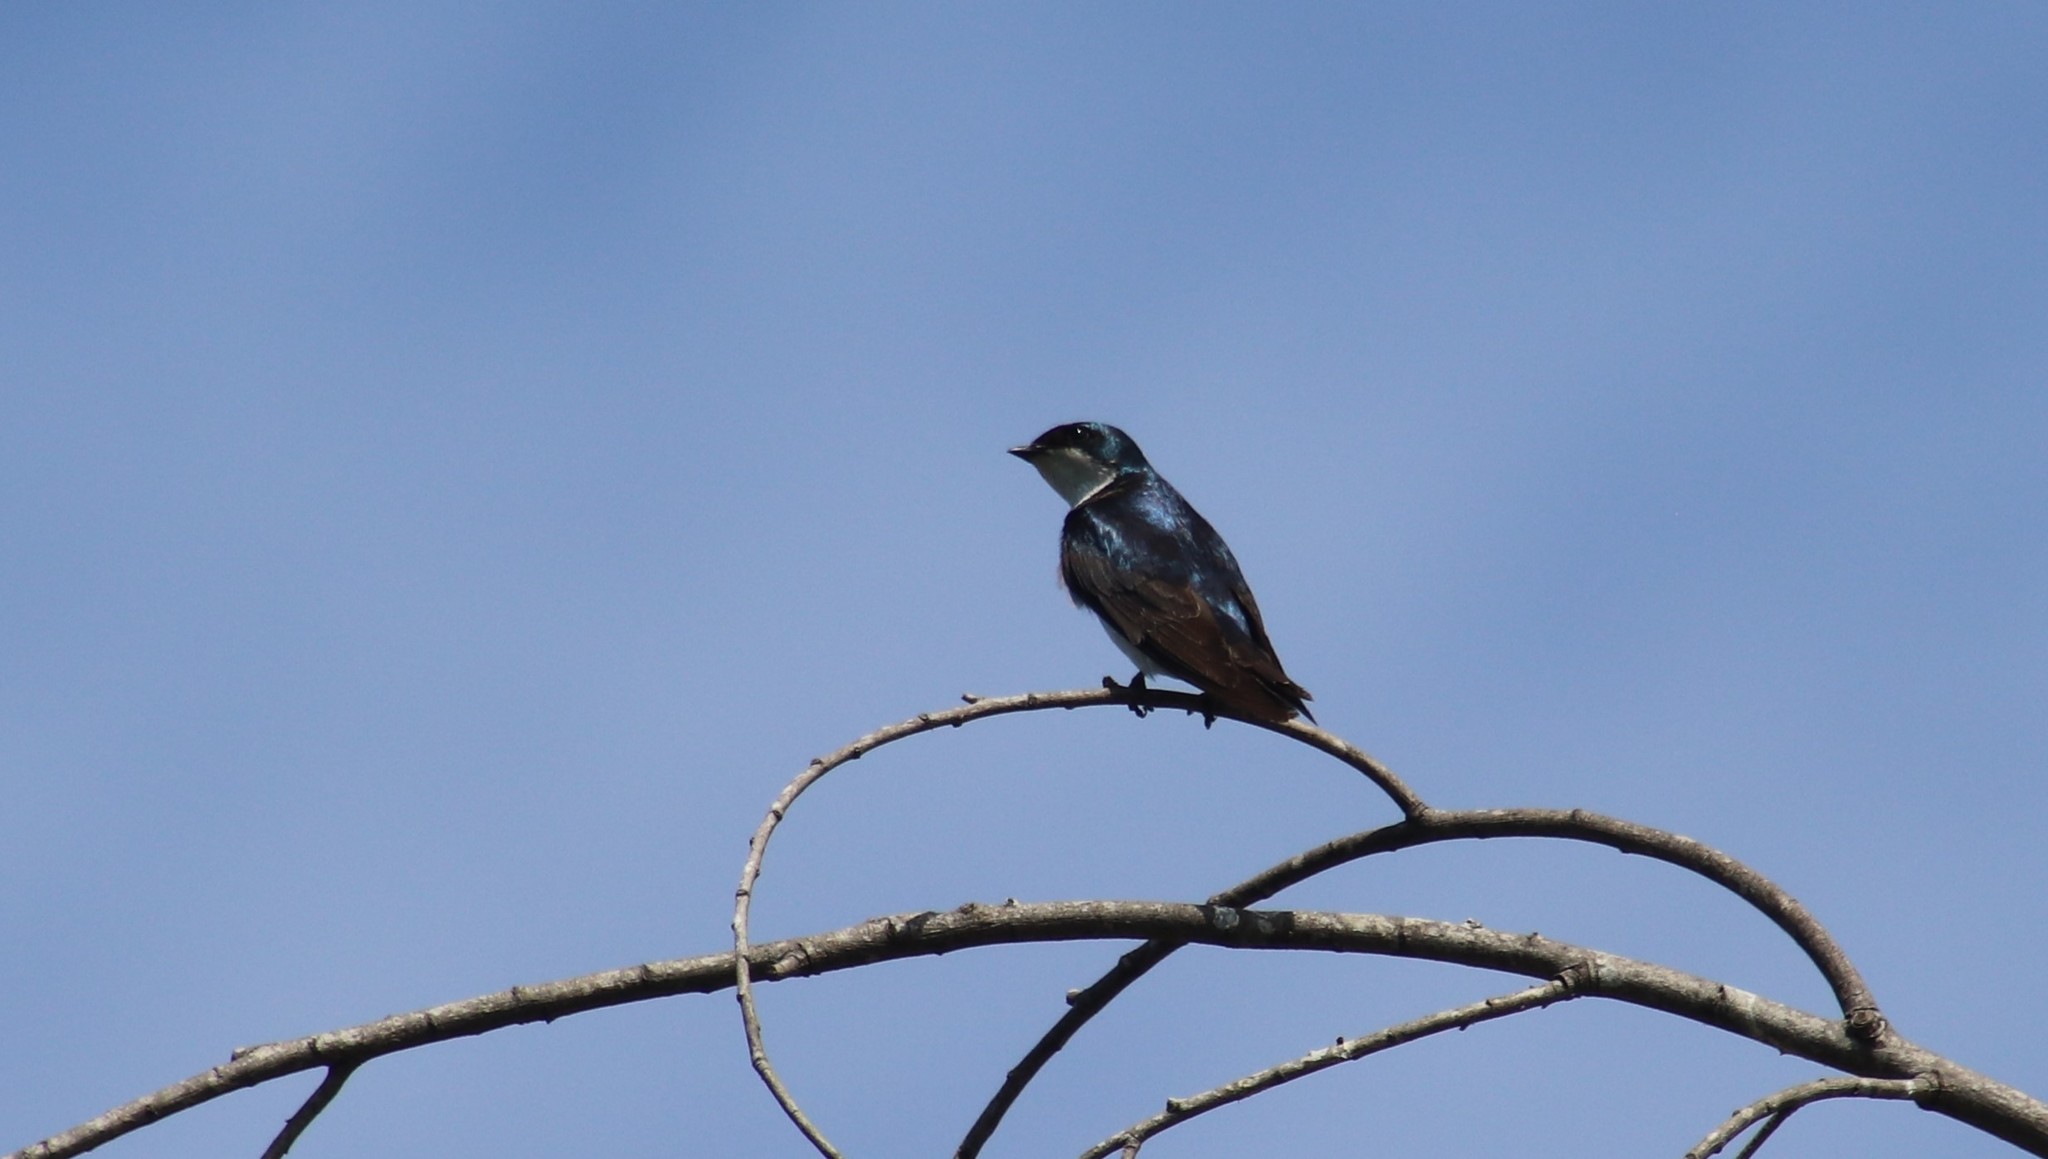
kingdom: Animalia
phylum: Chordata
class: Aves
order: Passeriformes
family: Hirundinidae
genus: Tachycineta
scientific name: Tachycineta bicolor
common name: Tree swallow
